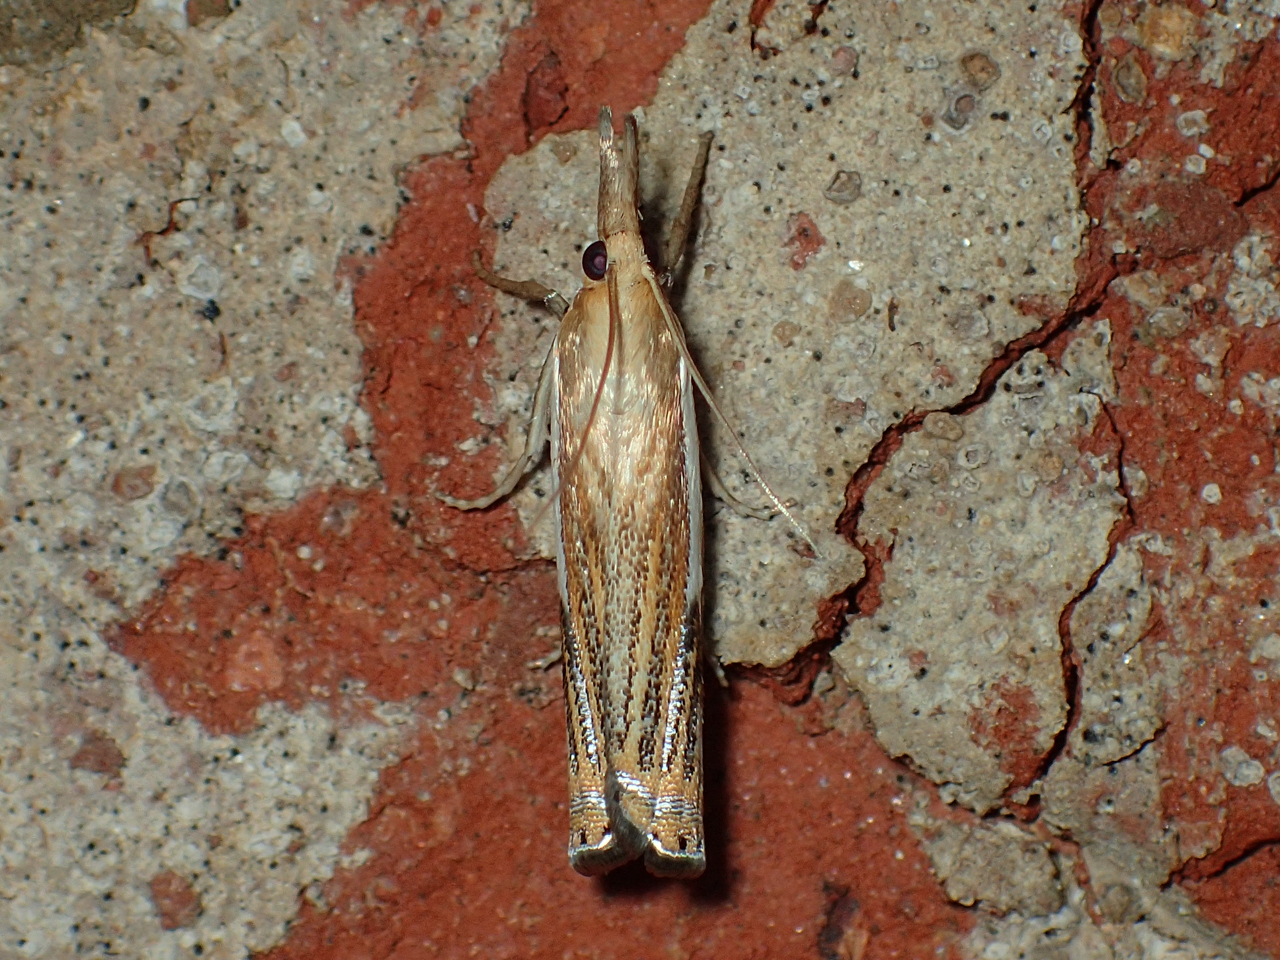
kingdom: Animalia
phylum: Arthropoda
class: Insecta
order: Lepidoptera
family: Crambidae
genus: Crambus
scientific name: Crambus agitatellus
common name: Double-banded grass-veneer
